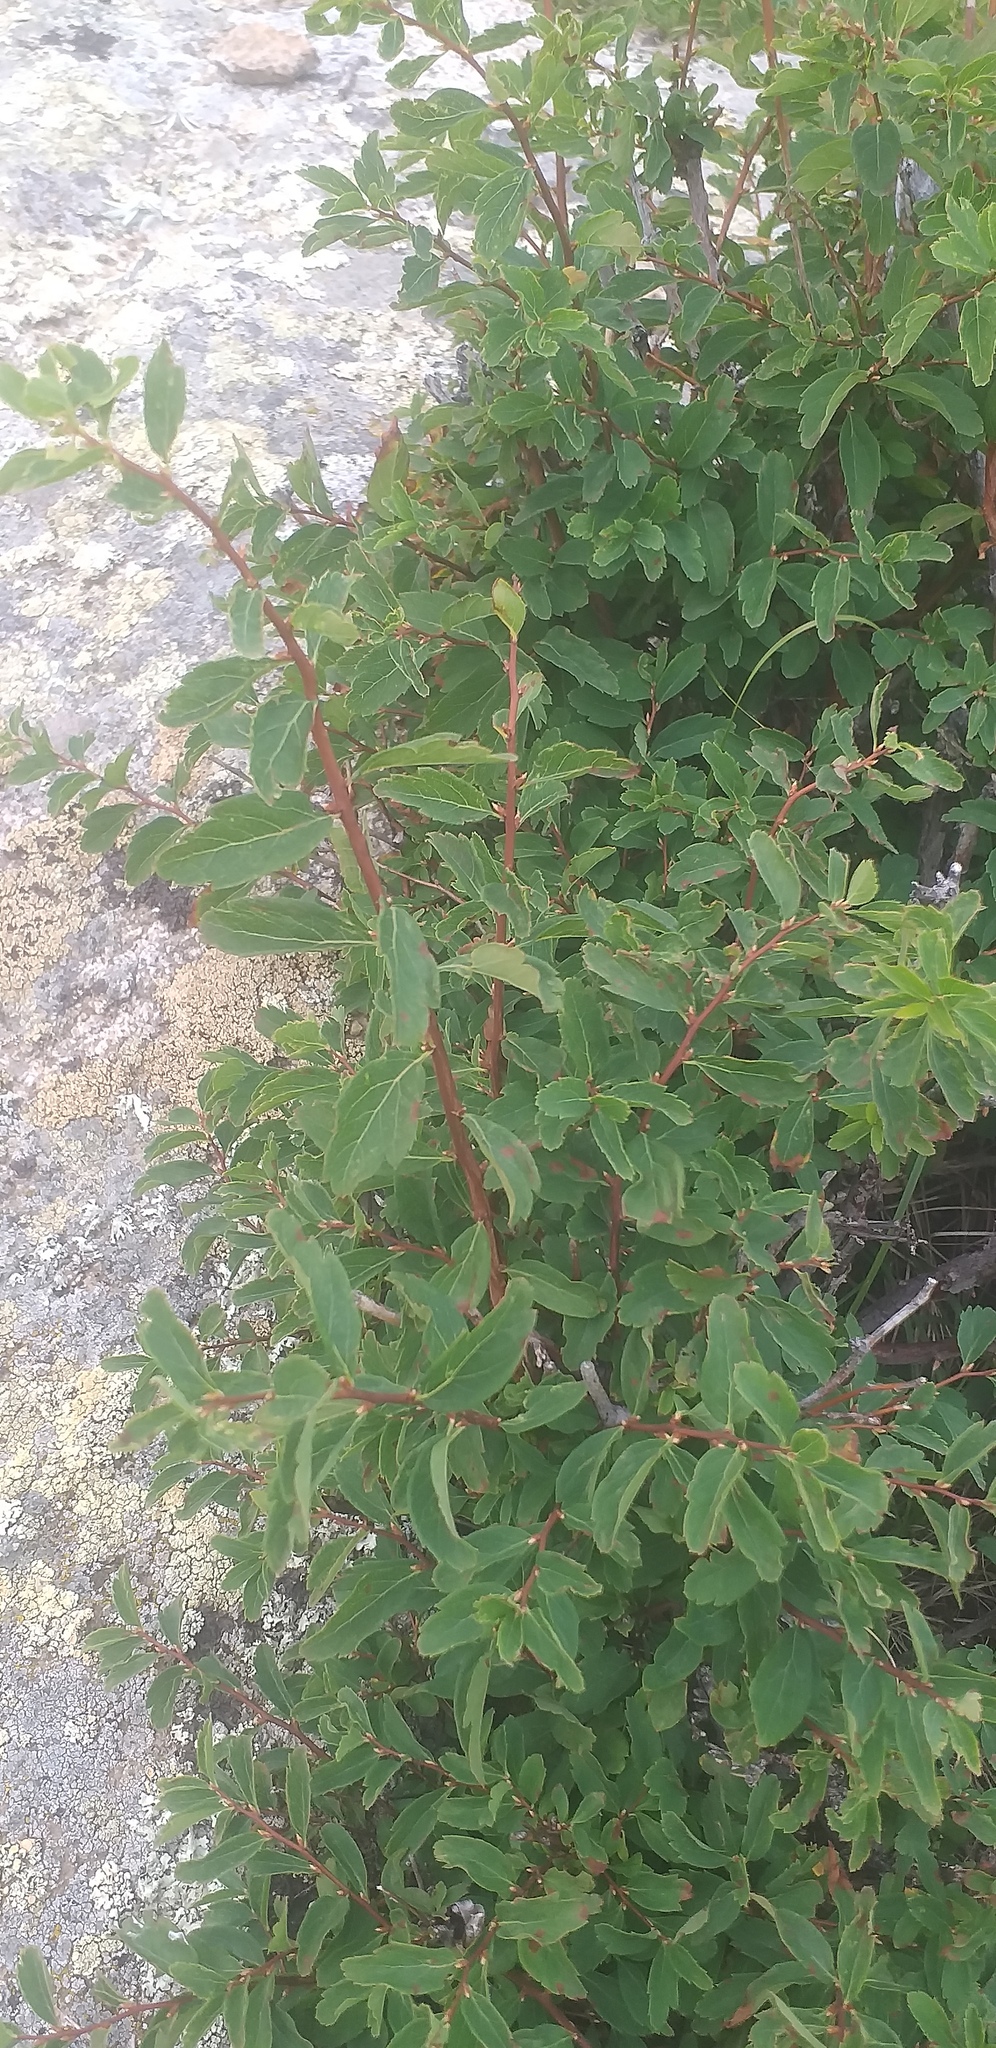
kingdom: Plantae
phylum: Tracheophyta
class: Magnoliopsida
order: Rosales
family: Rosaceae
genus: Spiraea
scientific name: Spiraea media
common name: Russian spiraea
